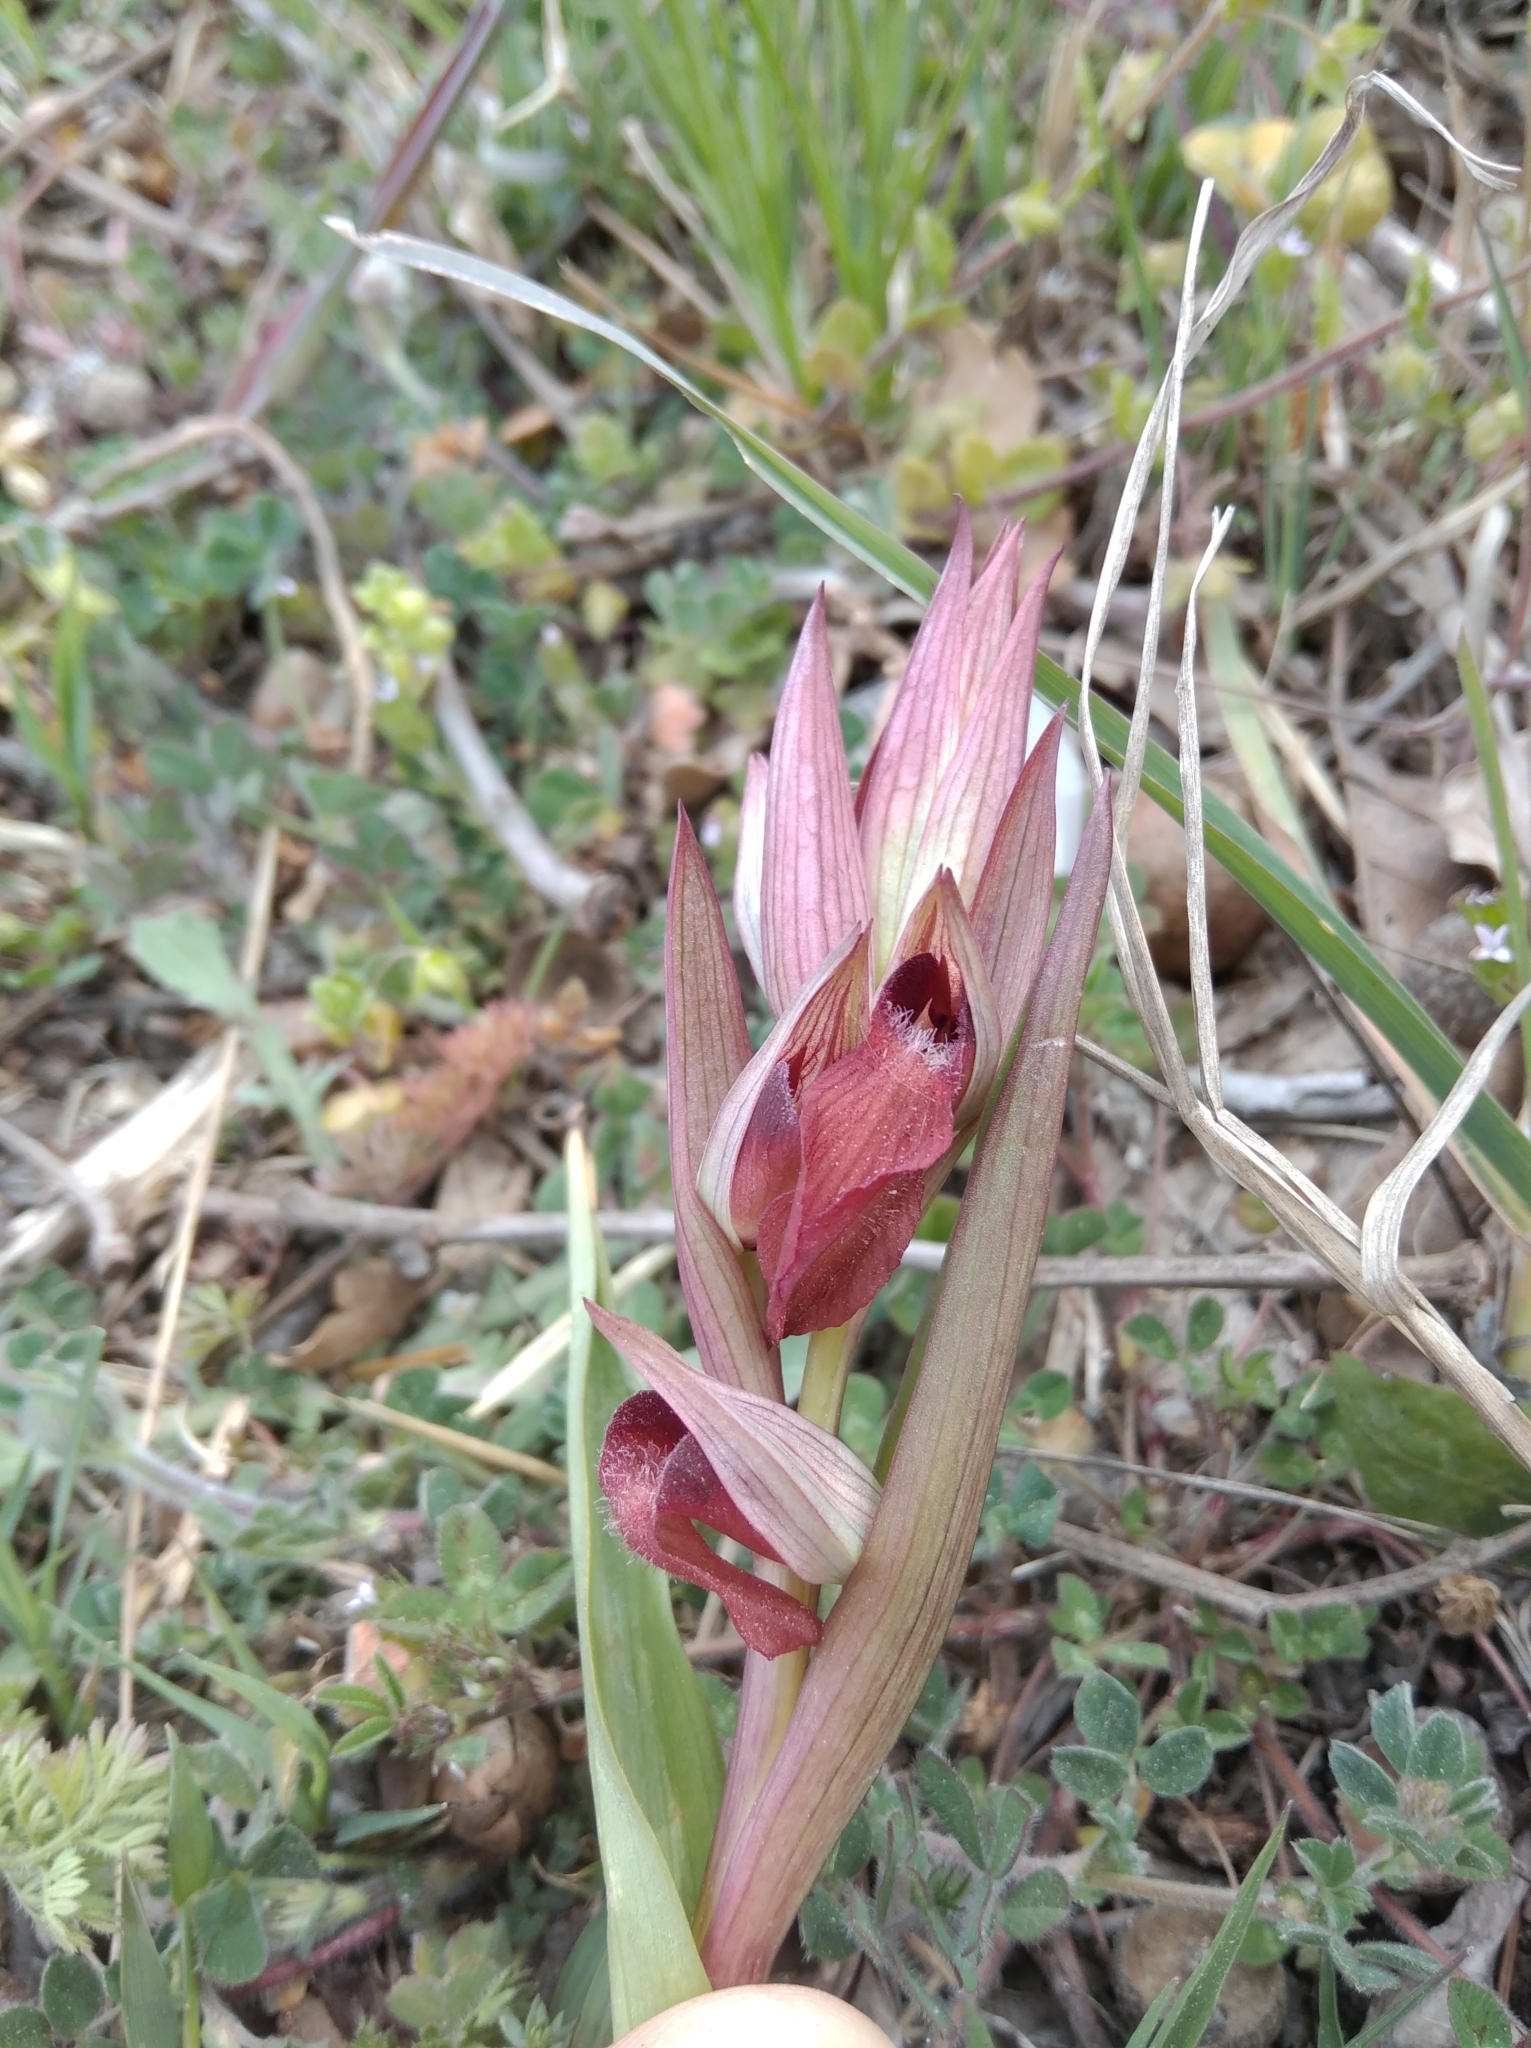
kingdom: Plantae
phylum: Tracheophyta
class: Liliopsida
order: Asparagales
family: Orchidaceae
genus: Serapias
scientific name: Serapias vomeracea
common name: Long-lipped tongue-orchid
